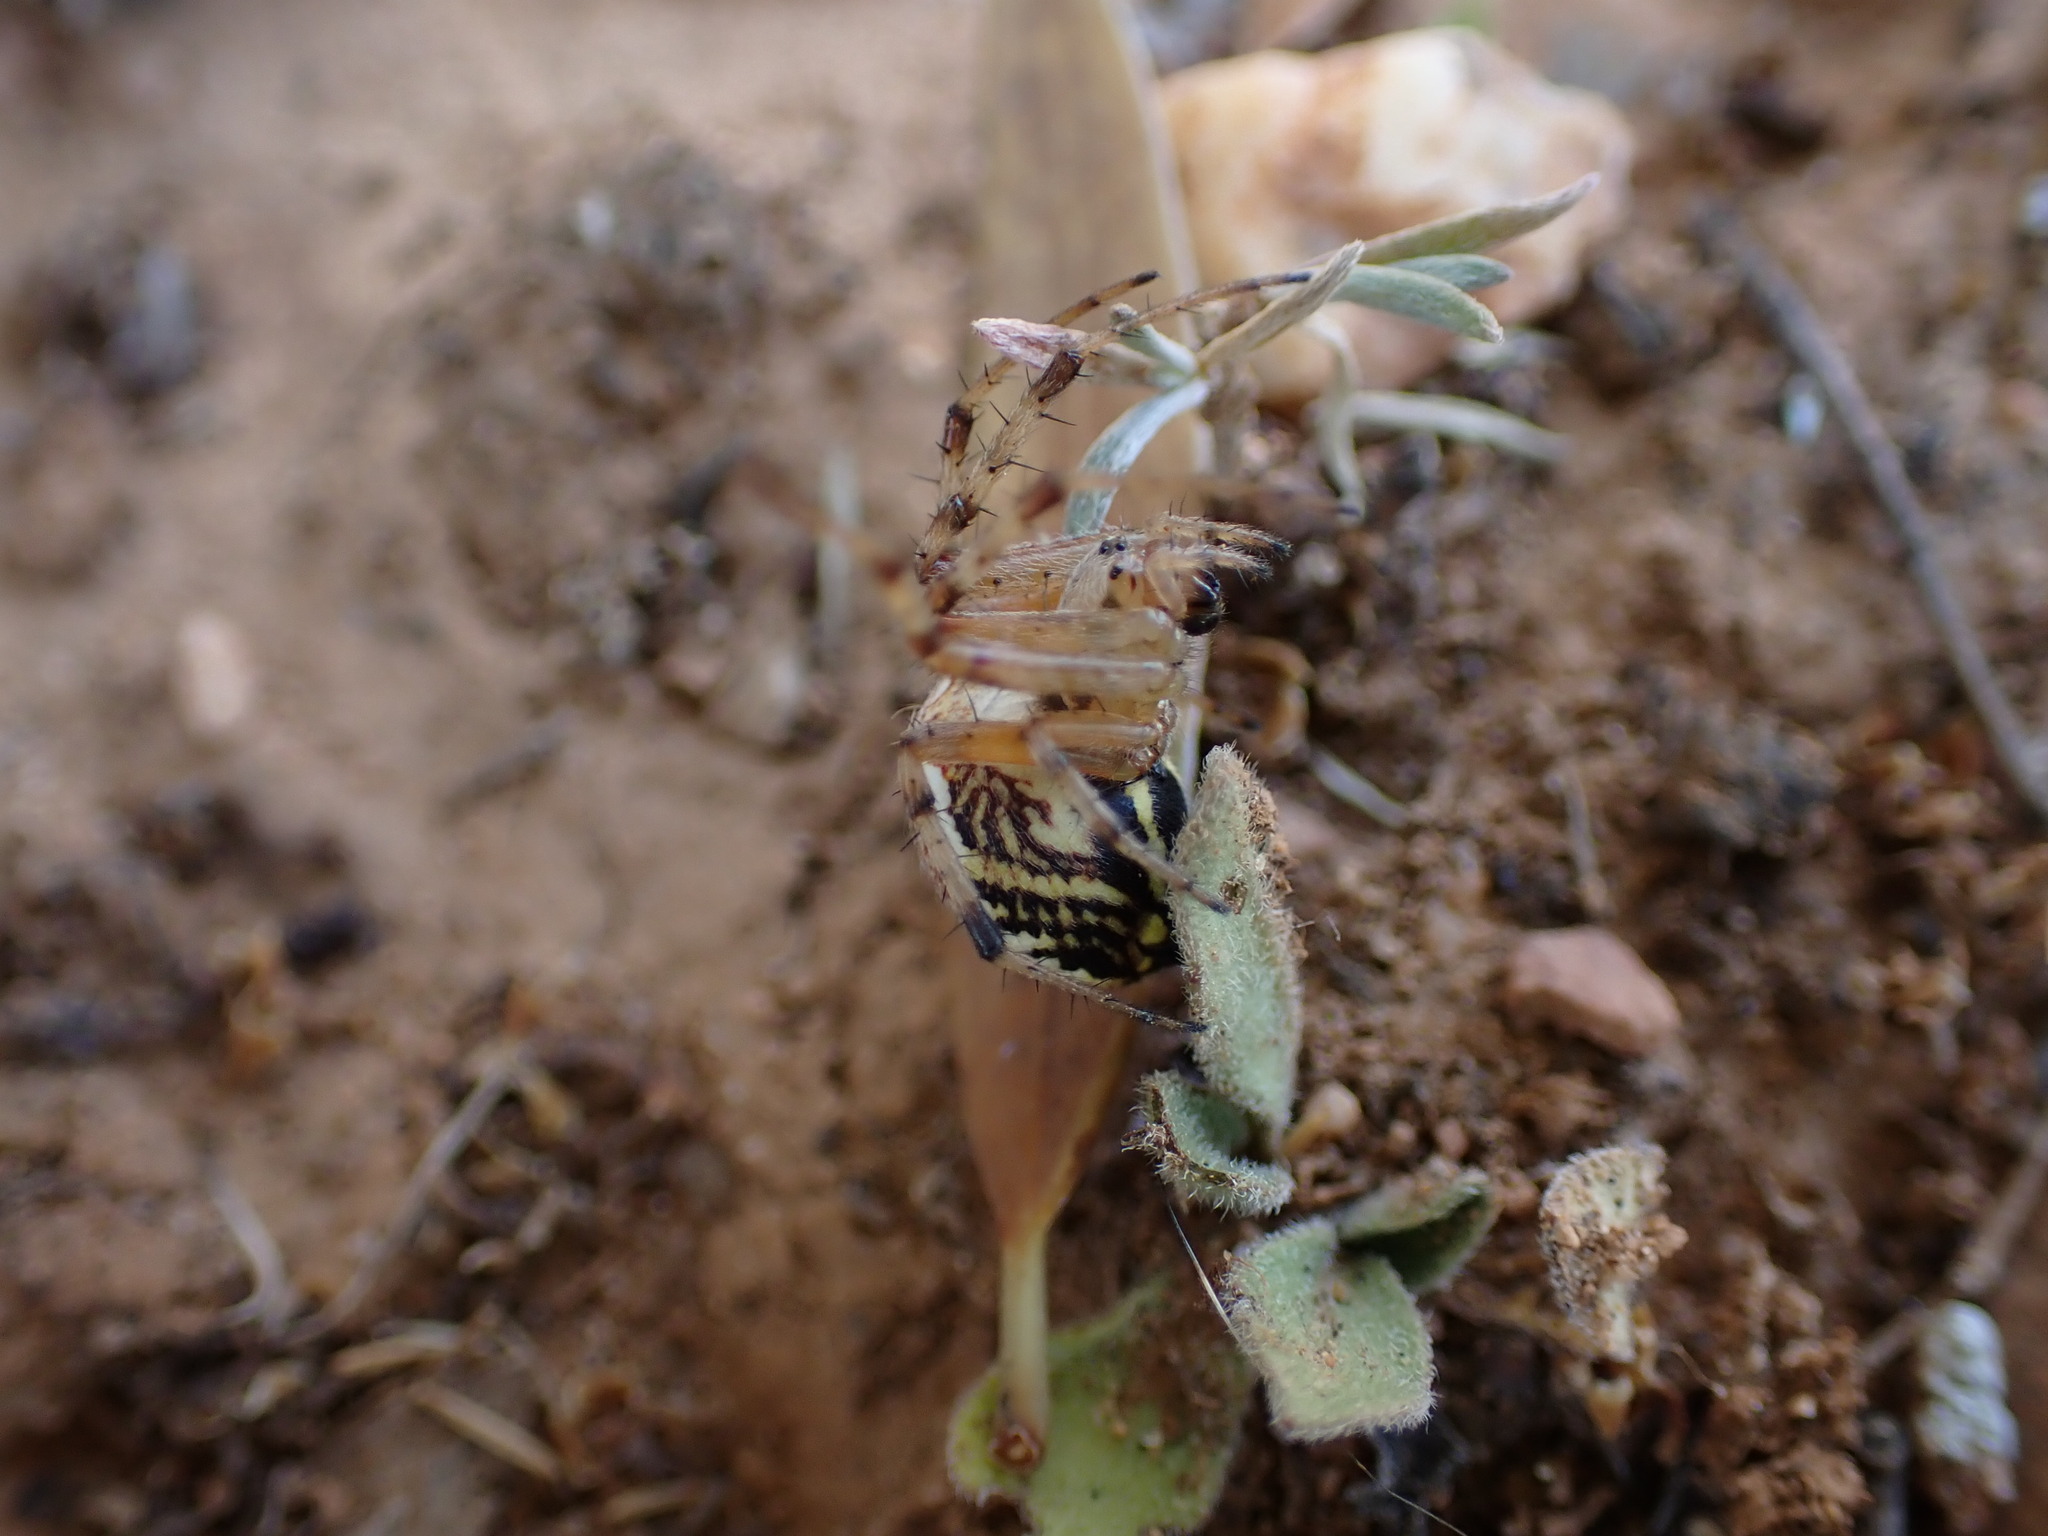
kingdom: Animalia
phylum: Arthropoda
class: Arachnida
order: Araneae
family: Araneidae
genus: Neoscona
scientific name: Neoscona
